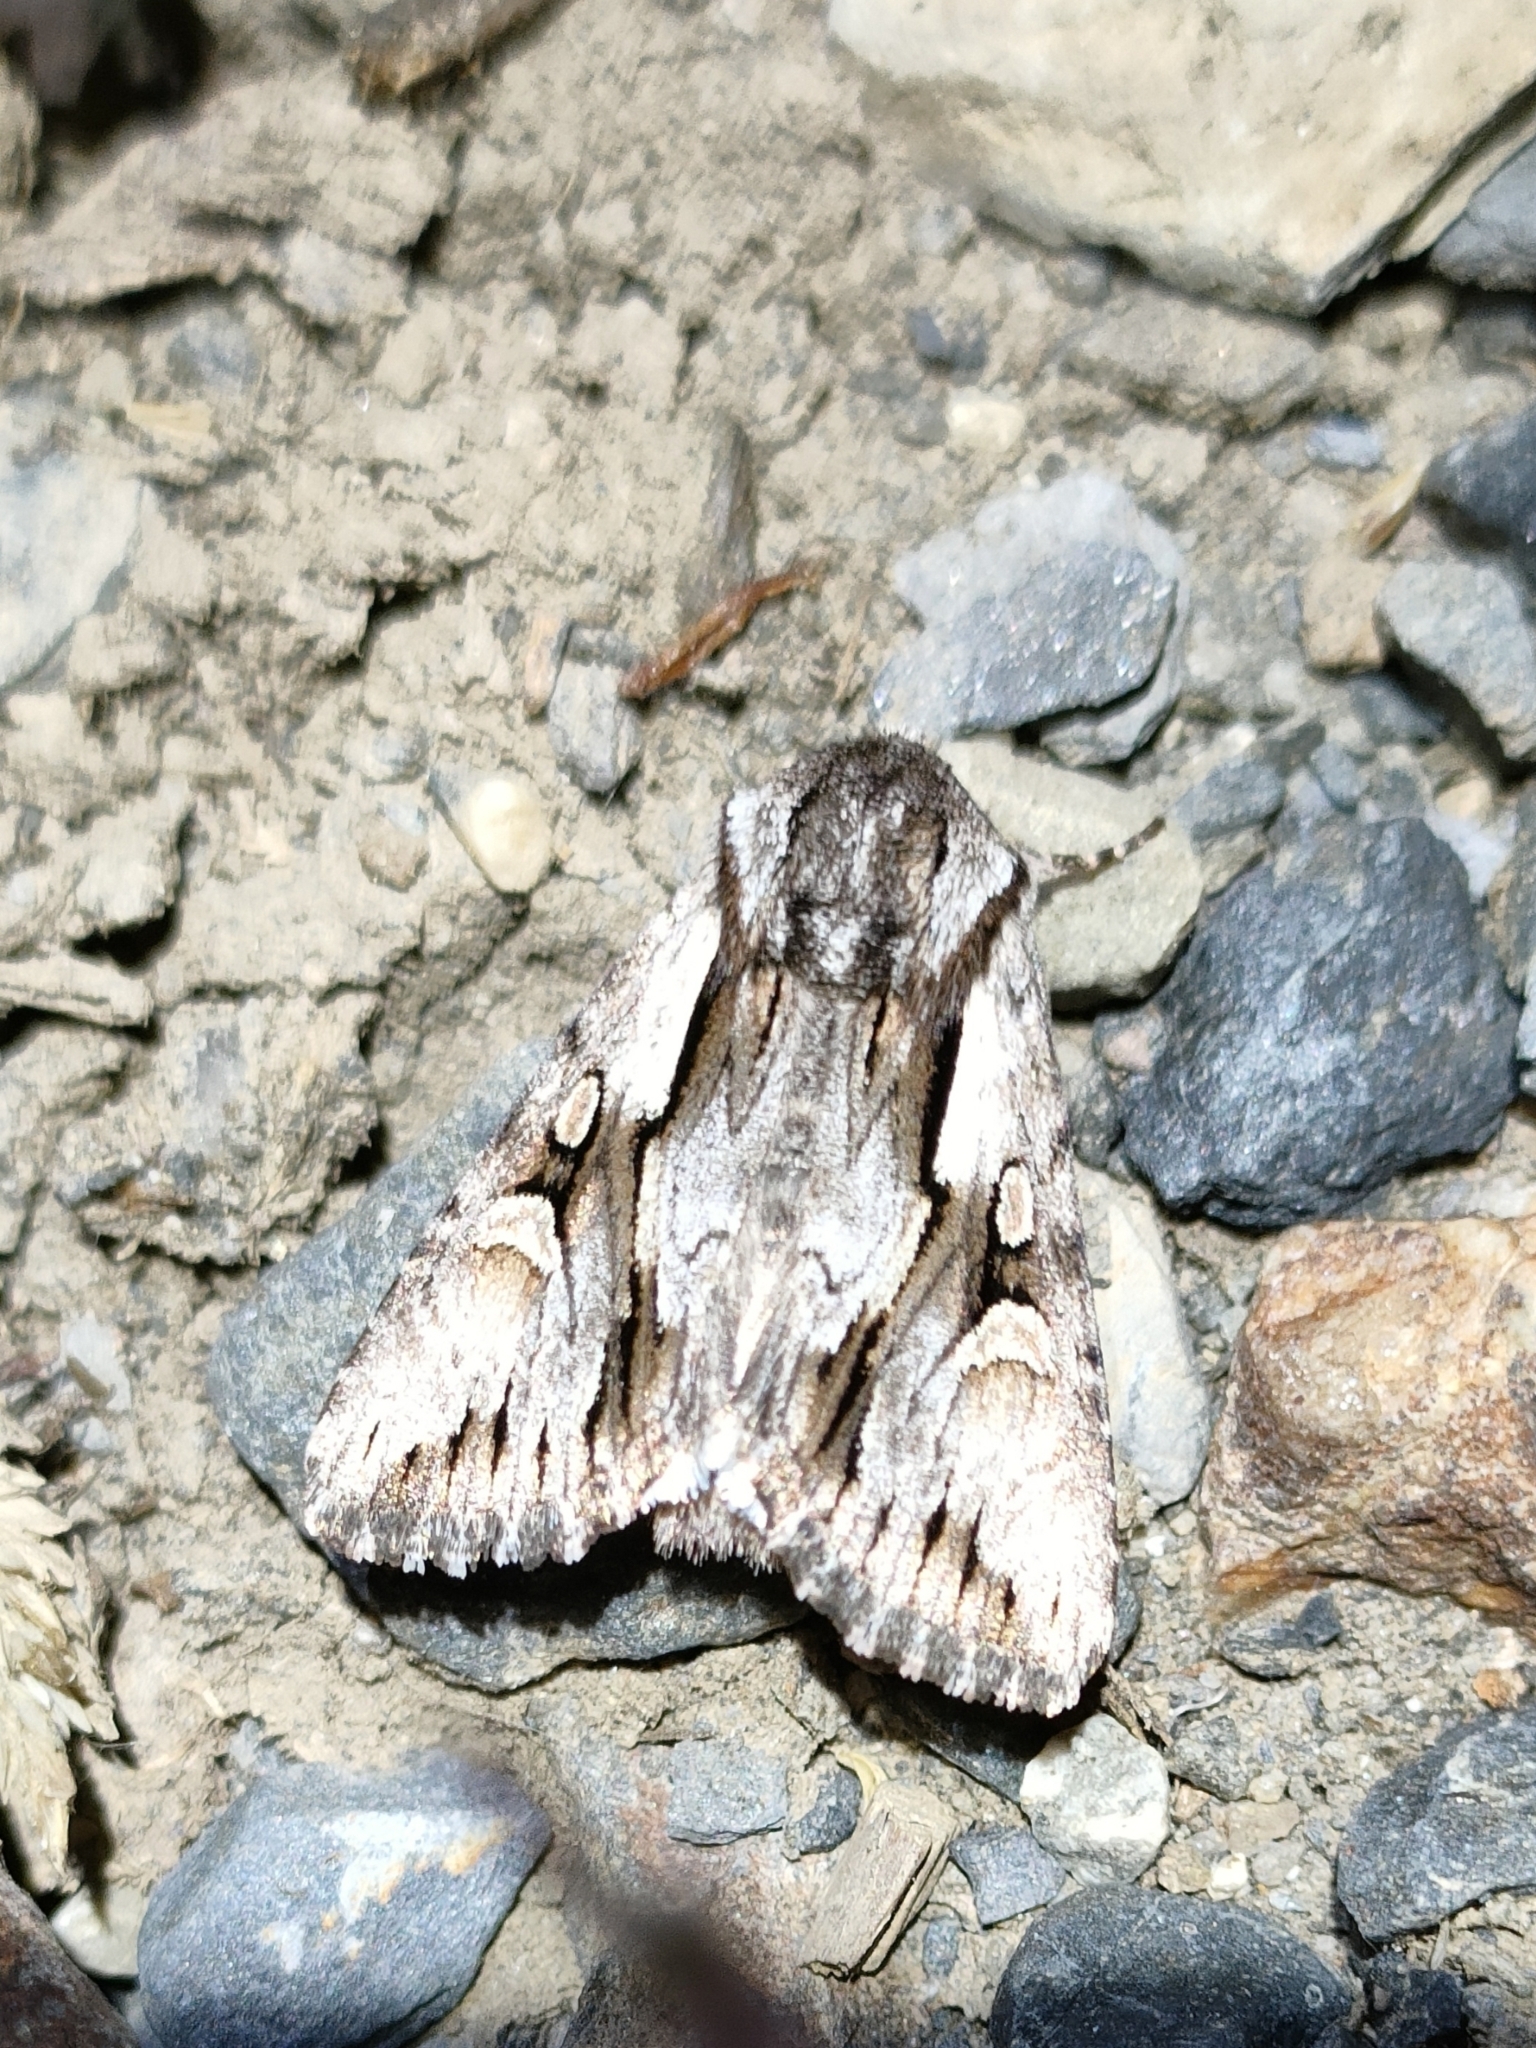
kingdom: Animalia
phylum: Arthropoda
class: Insecta
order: Lepidoptera
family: Noctuidae
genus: Chloantha
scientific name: Chloantha hyperici
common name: Pale-shouldered cloud
